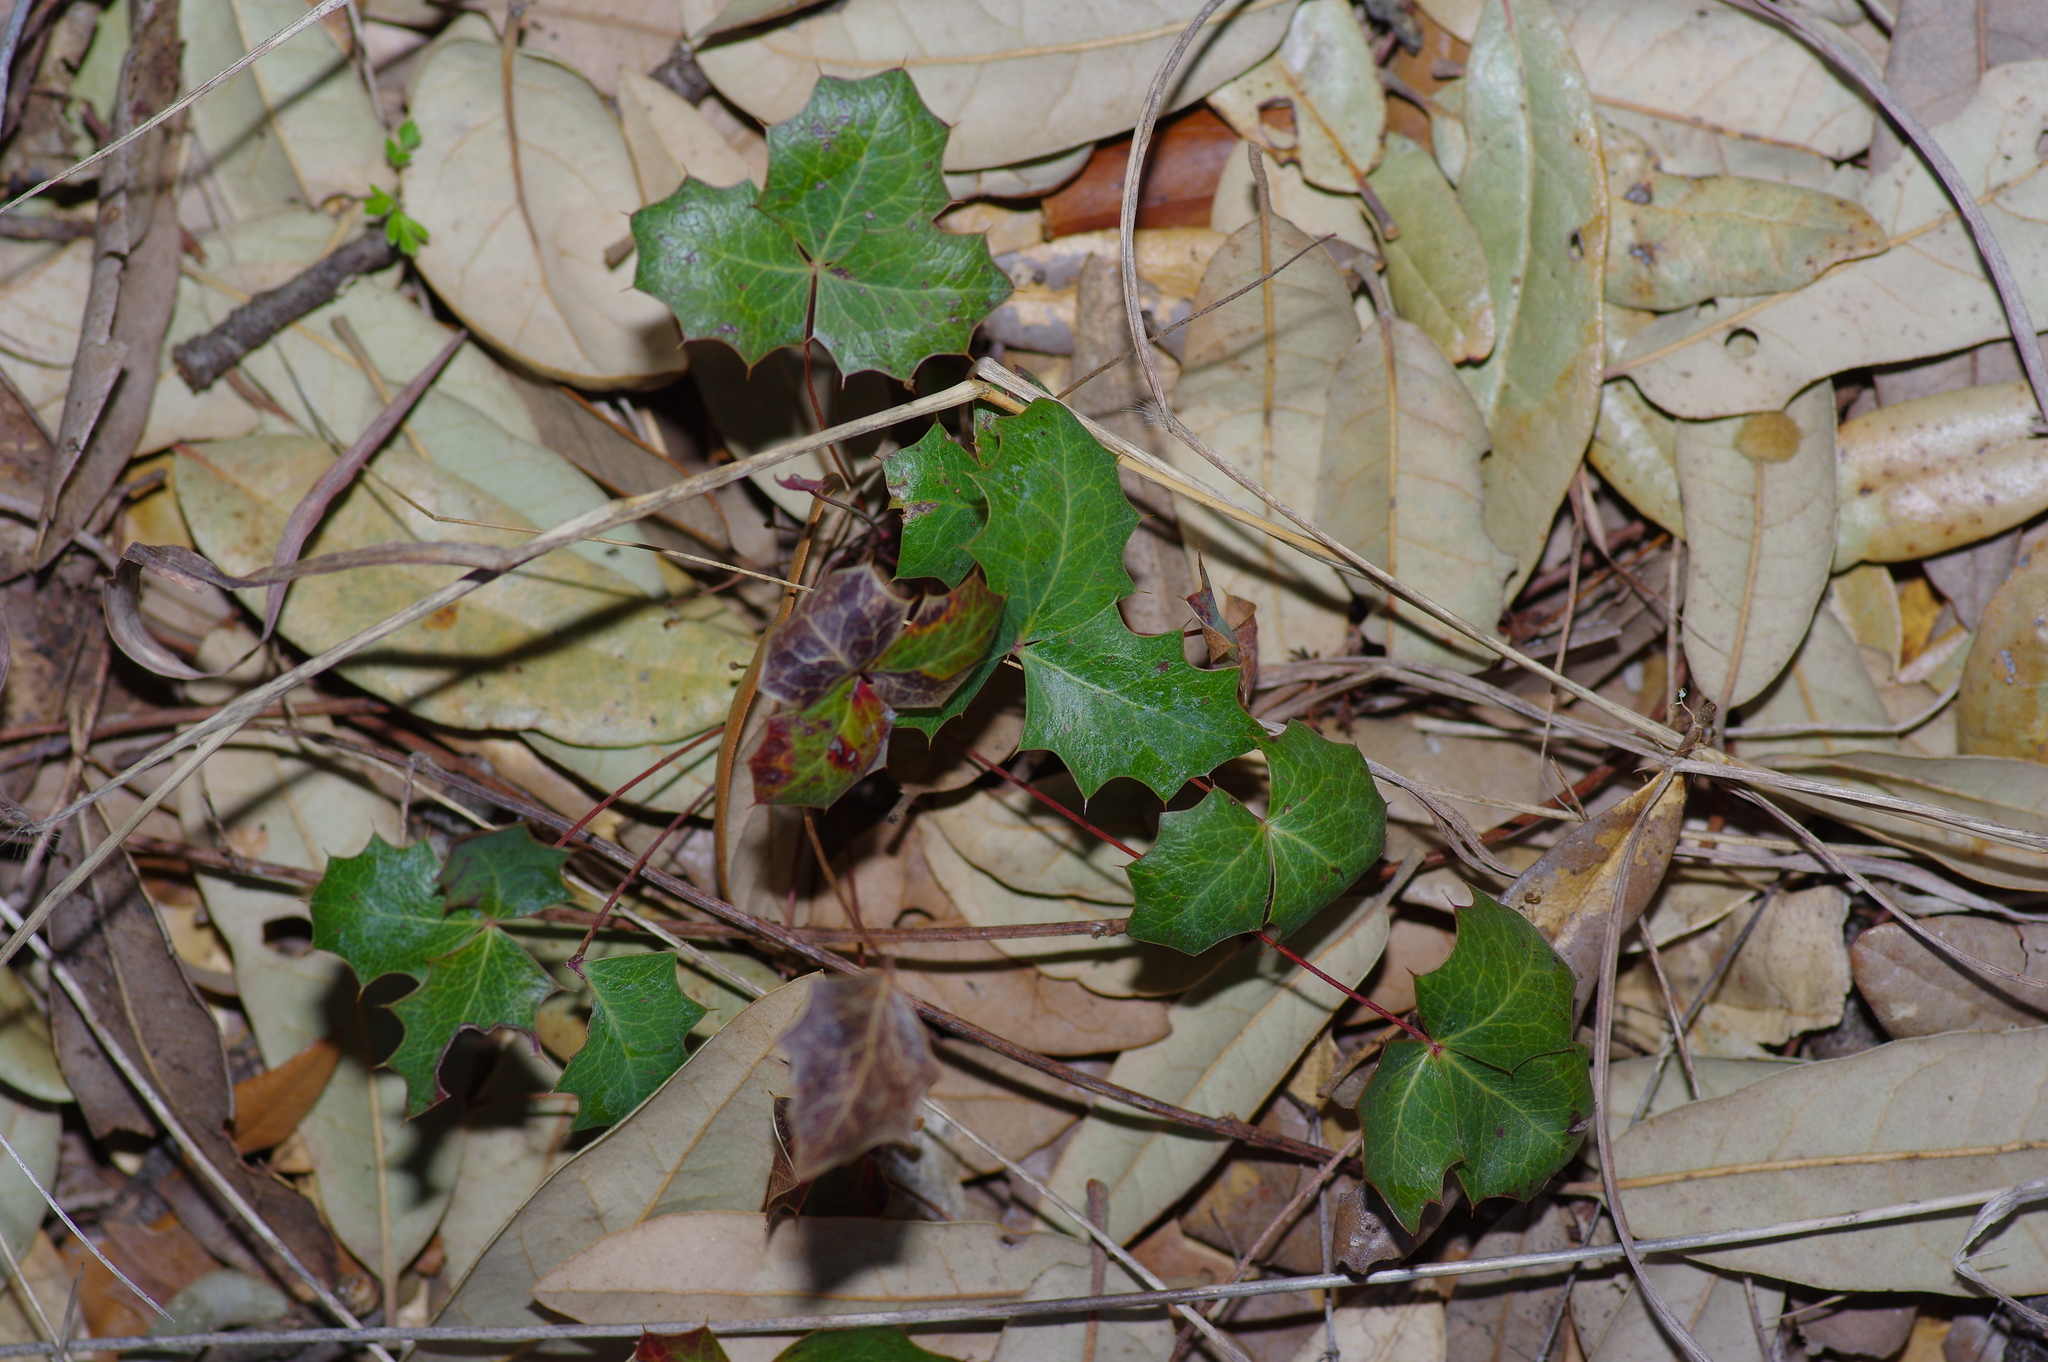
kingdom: Plantae
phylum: Tracheophyta
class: Magnoliopsida
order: Ranunculales
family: Berberidaceae
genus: Alloberberis
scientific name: Alloberberis trifoliolata
